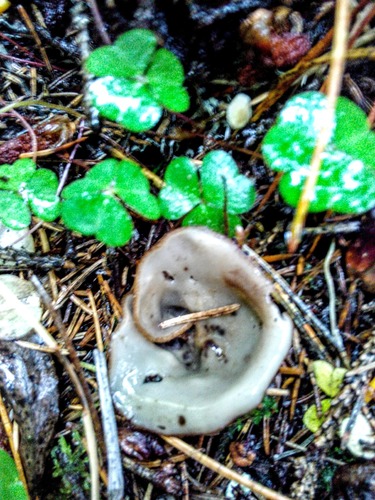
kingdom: Fungi
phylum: Ascomycota
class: Pezizomycetes
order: Pezizales
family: Pyronemataceae
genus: Humaria
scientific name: Humaria hemisphaerica
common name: Glazed cup
